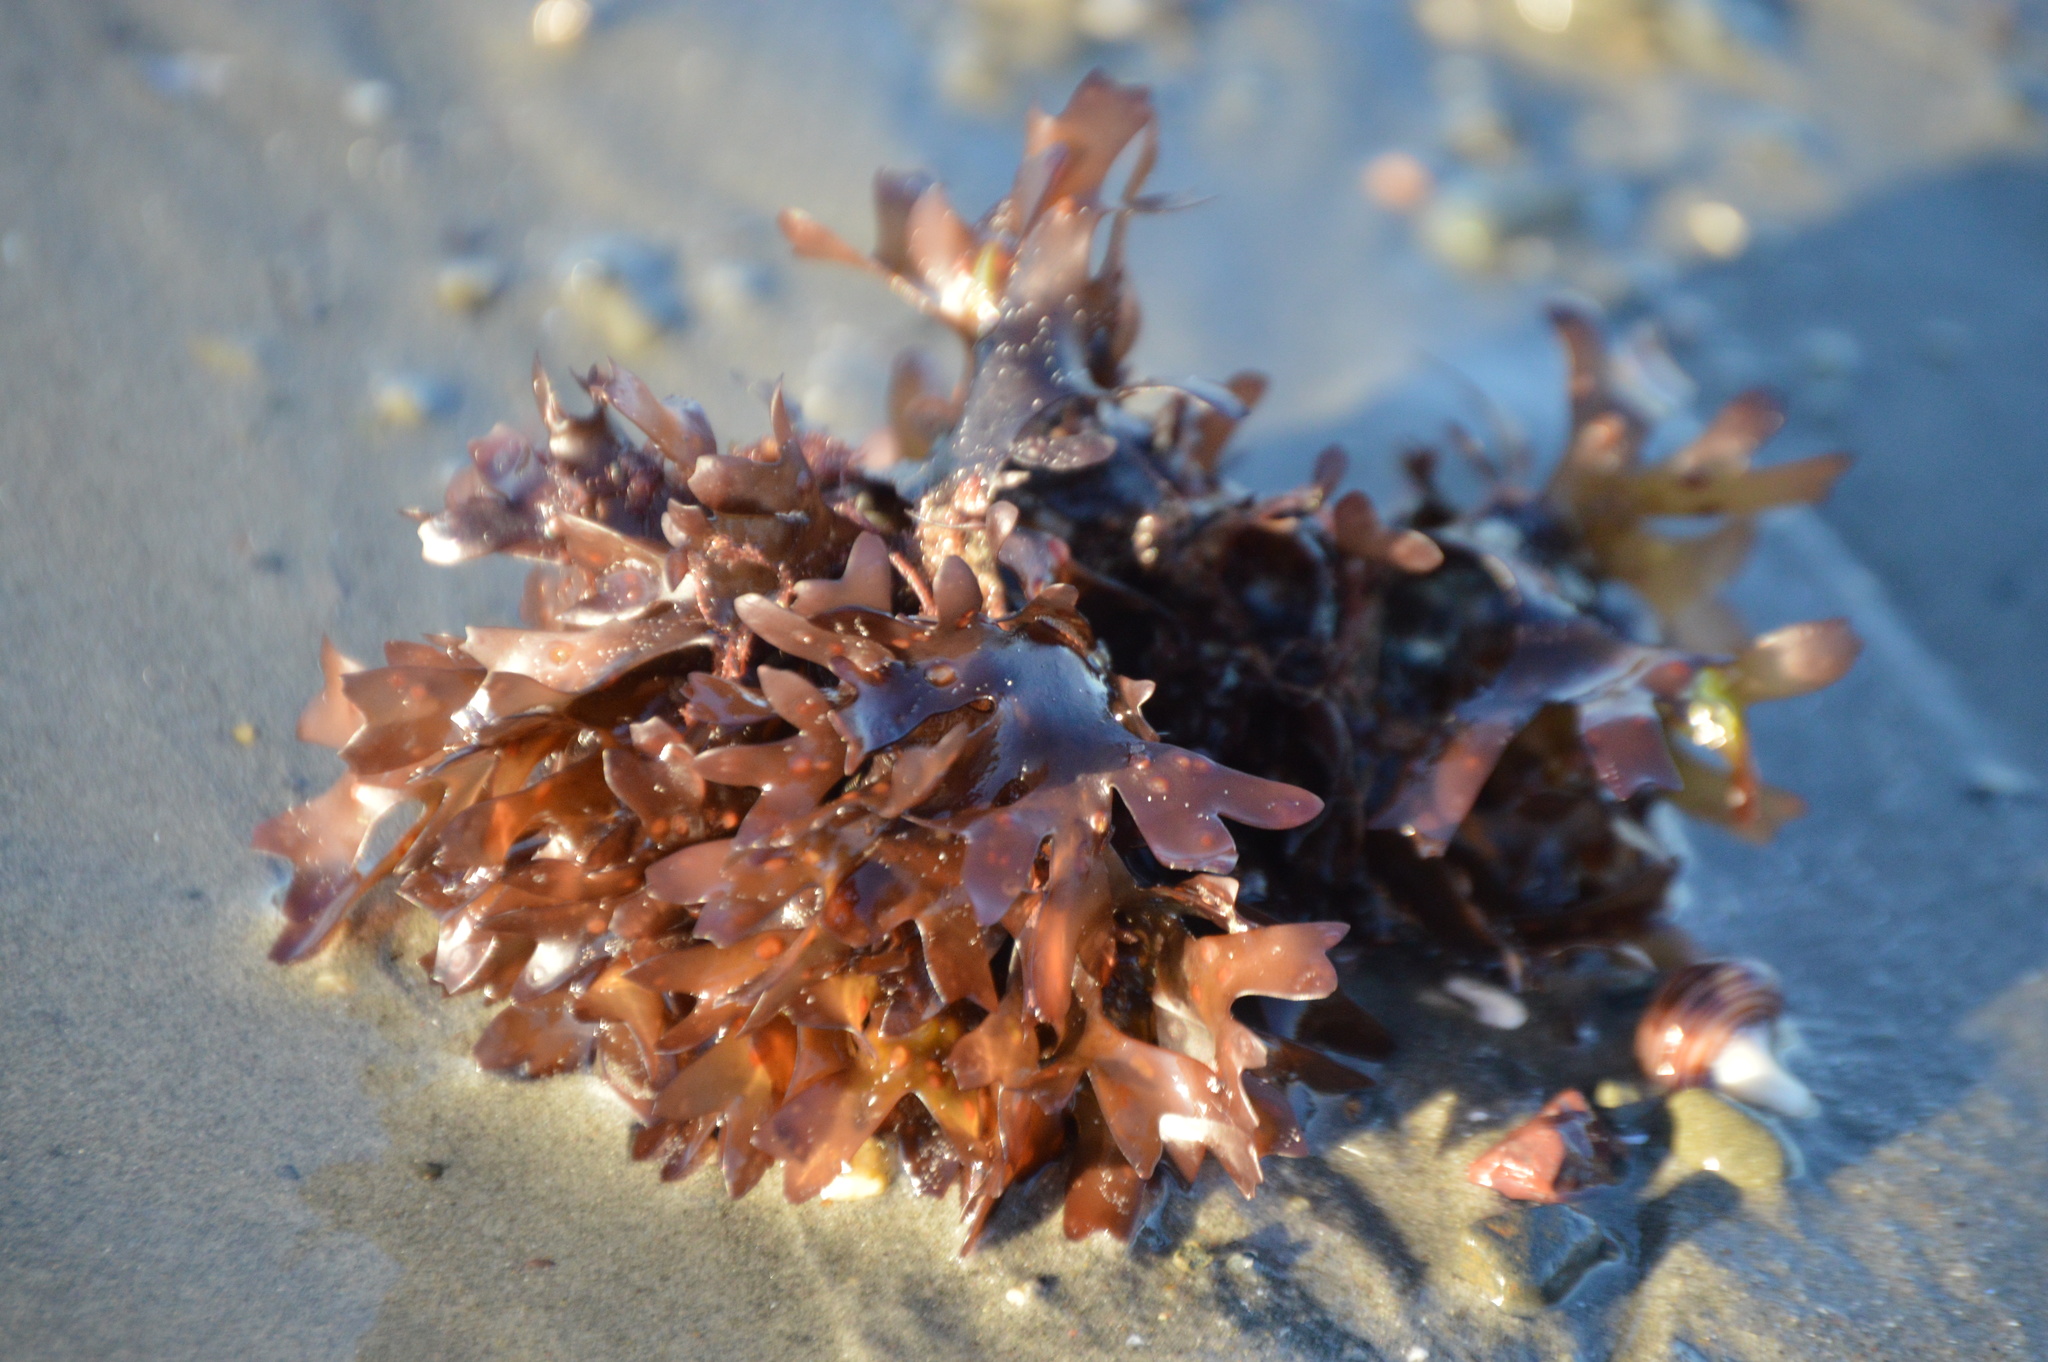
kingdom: Plantae
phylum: Rhodophyta
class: Florideophyceae
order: Gigartinales
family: Gigartinaceae
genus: Chondrus
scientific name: Chondrus crispus
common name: Carrageen
